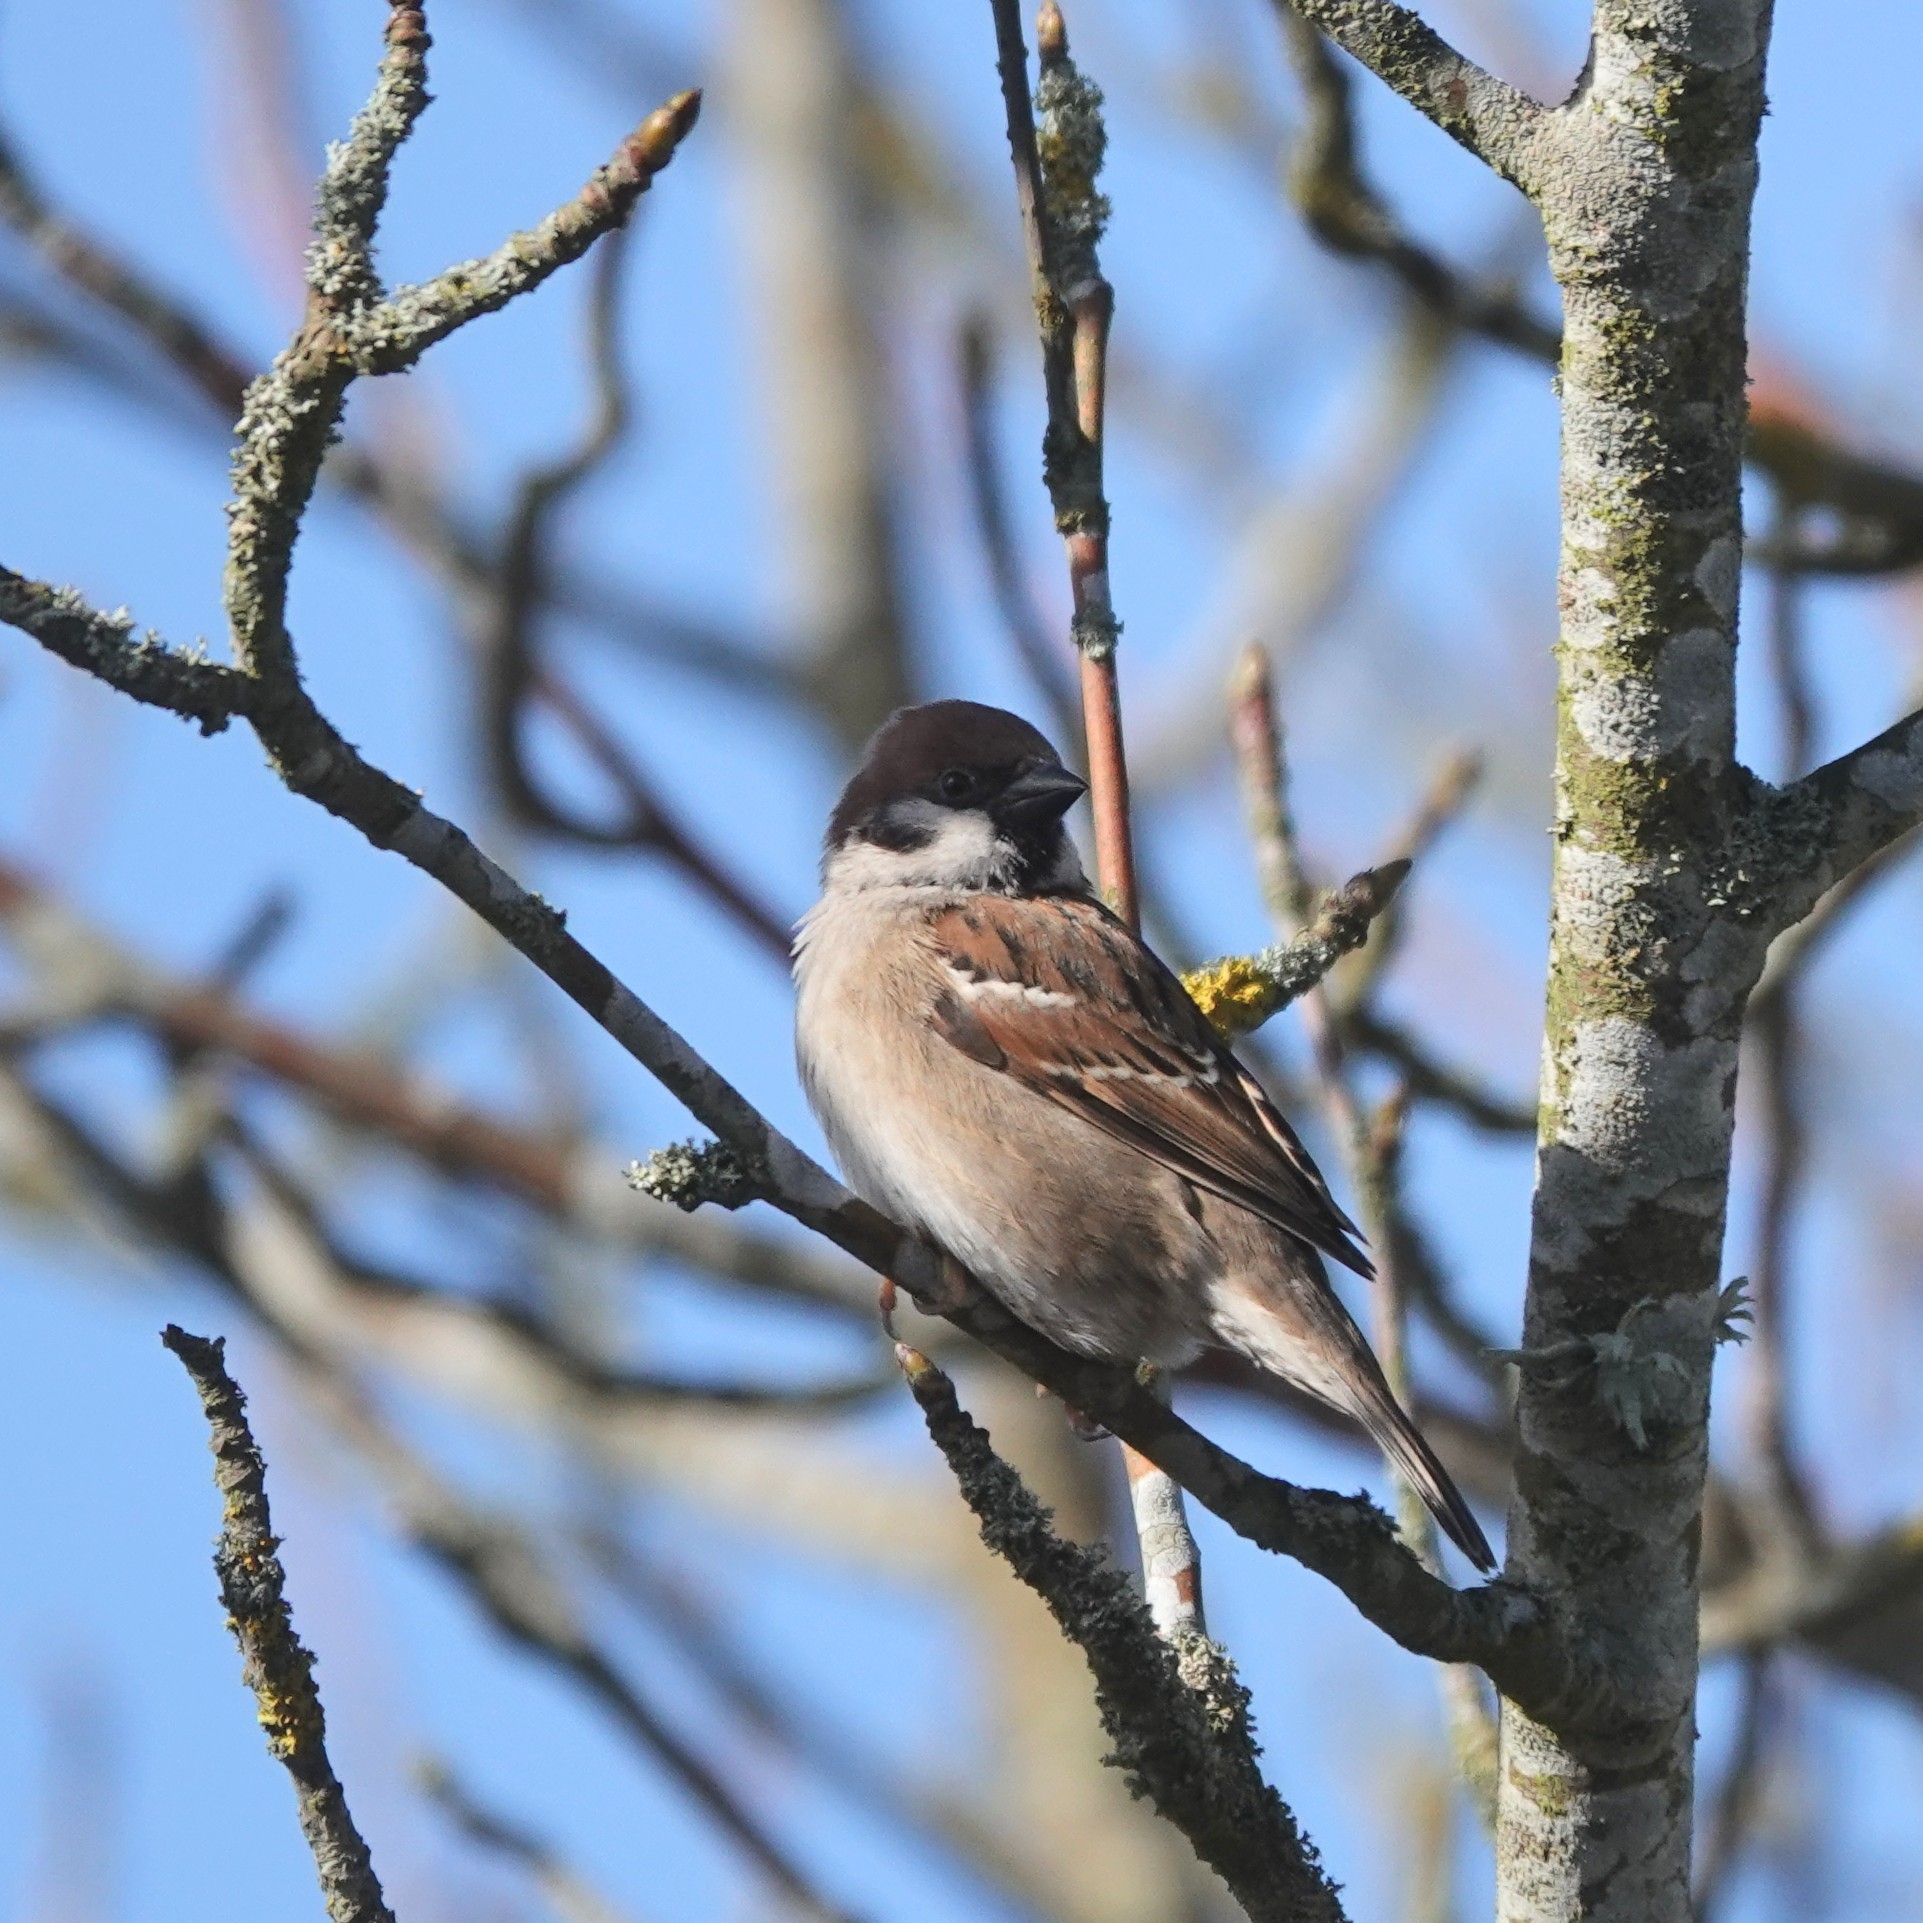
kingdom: Animalia
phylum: Chordata
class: Aves
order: Passeriformes
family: Passeridae
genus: Passer
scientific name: Passer montanus
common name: Eurasian tree sparrow
